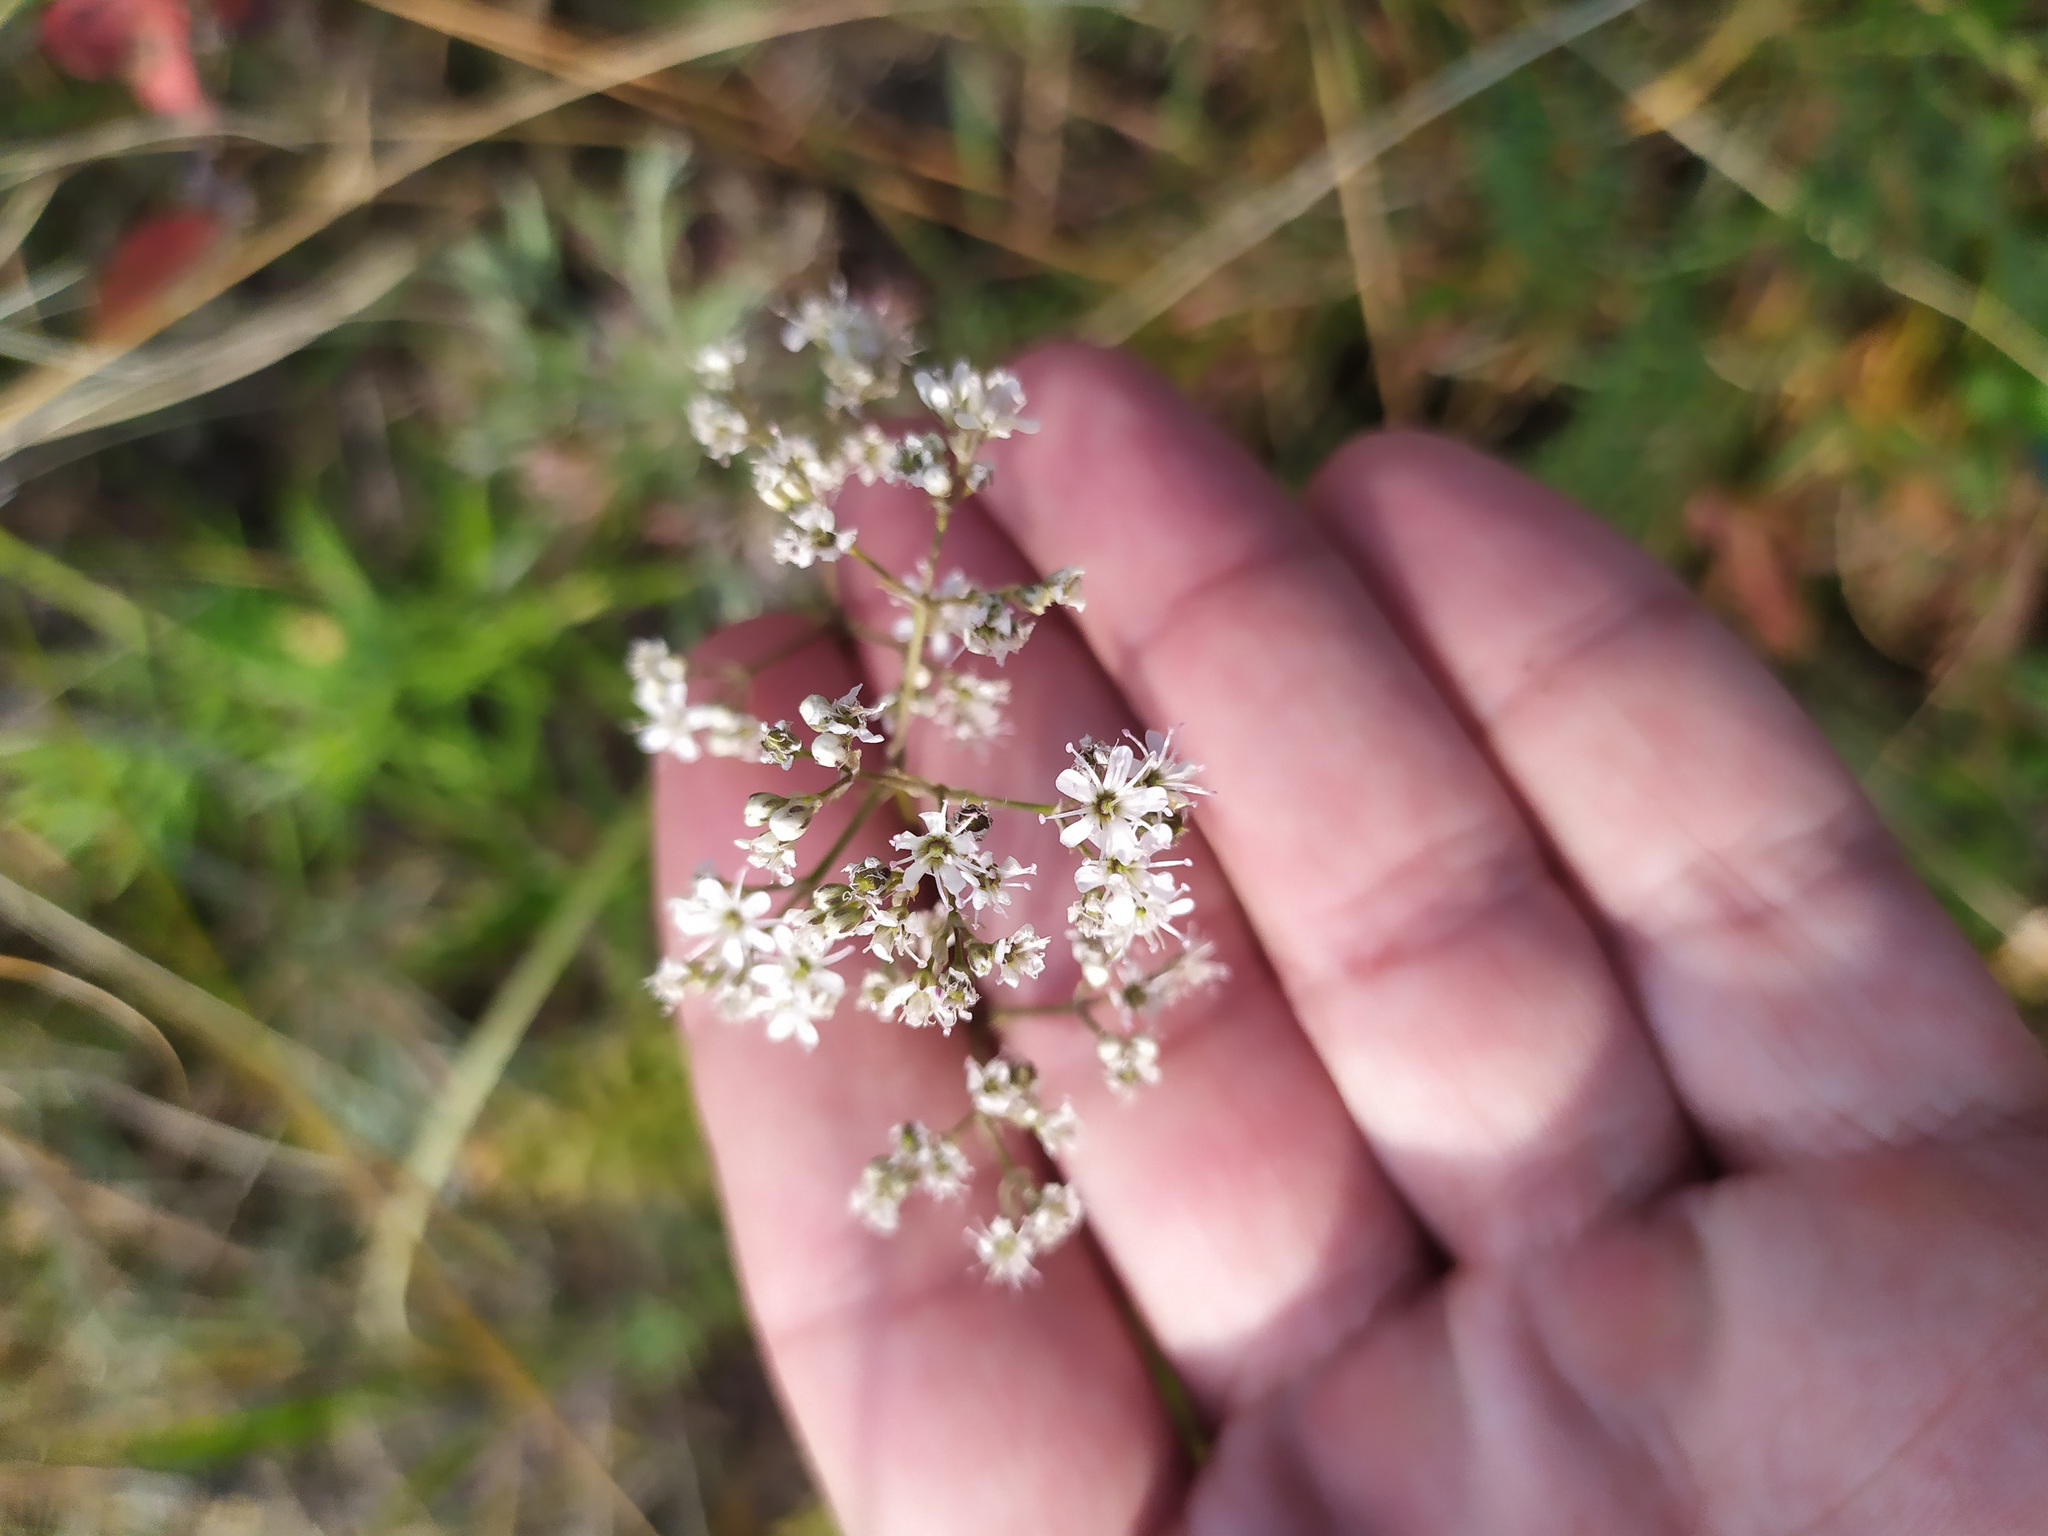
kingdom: Plantae
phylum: Tracheophyta
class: Magnoliopsida
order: Caryophyllales
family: Caryophyllaceae
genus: Gypsophila
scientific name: Gypsophila altissima
